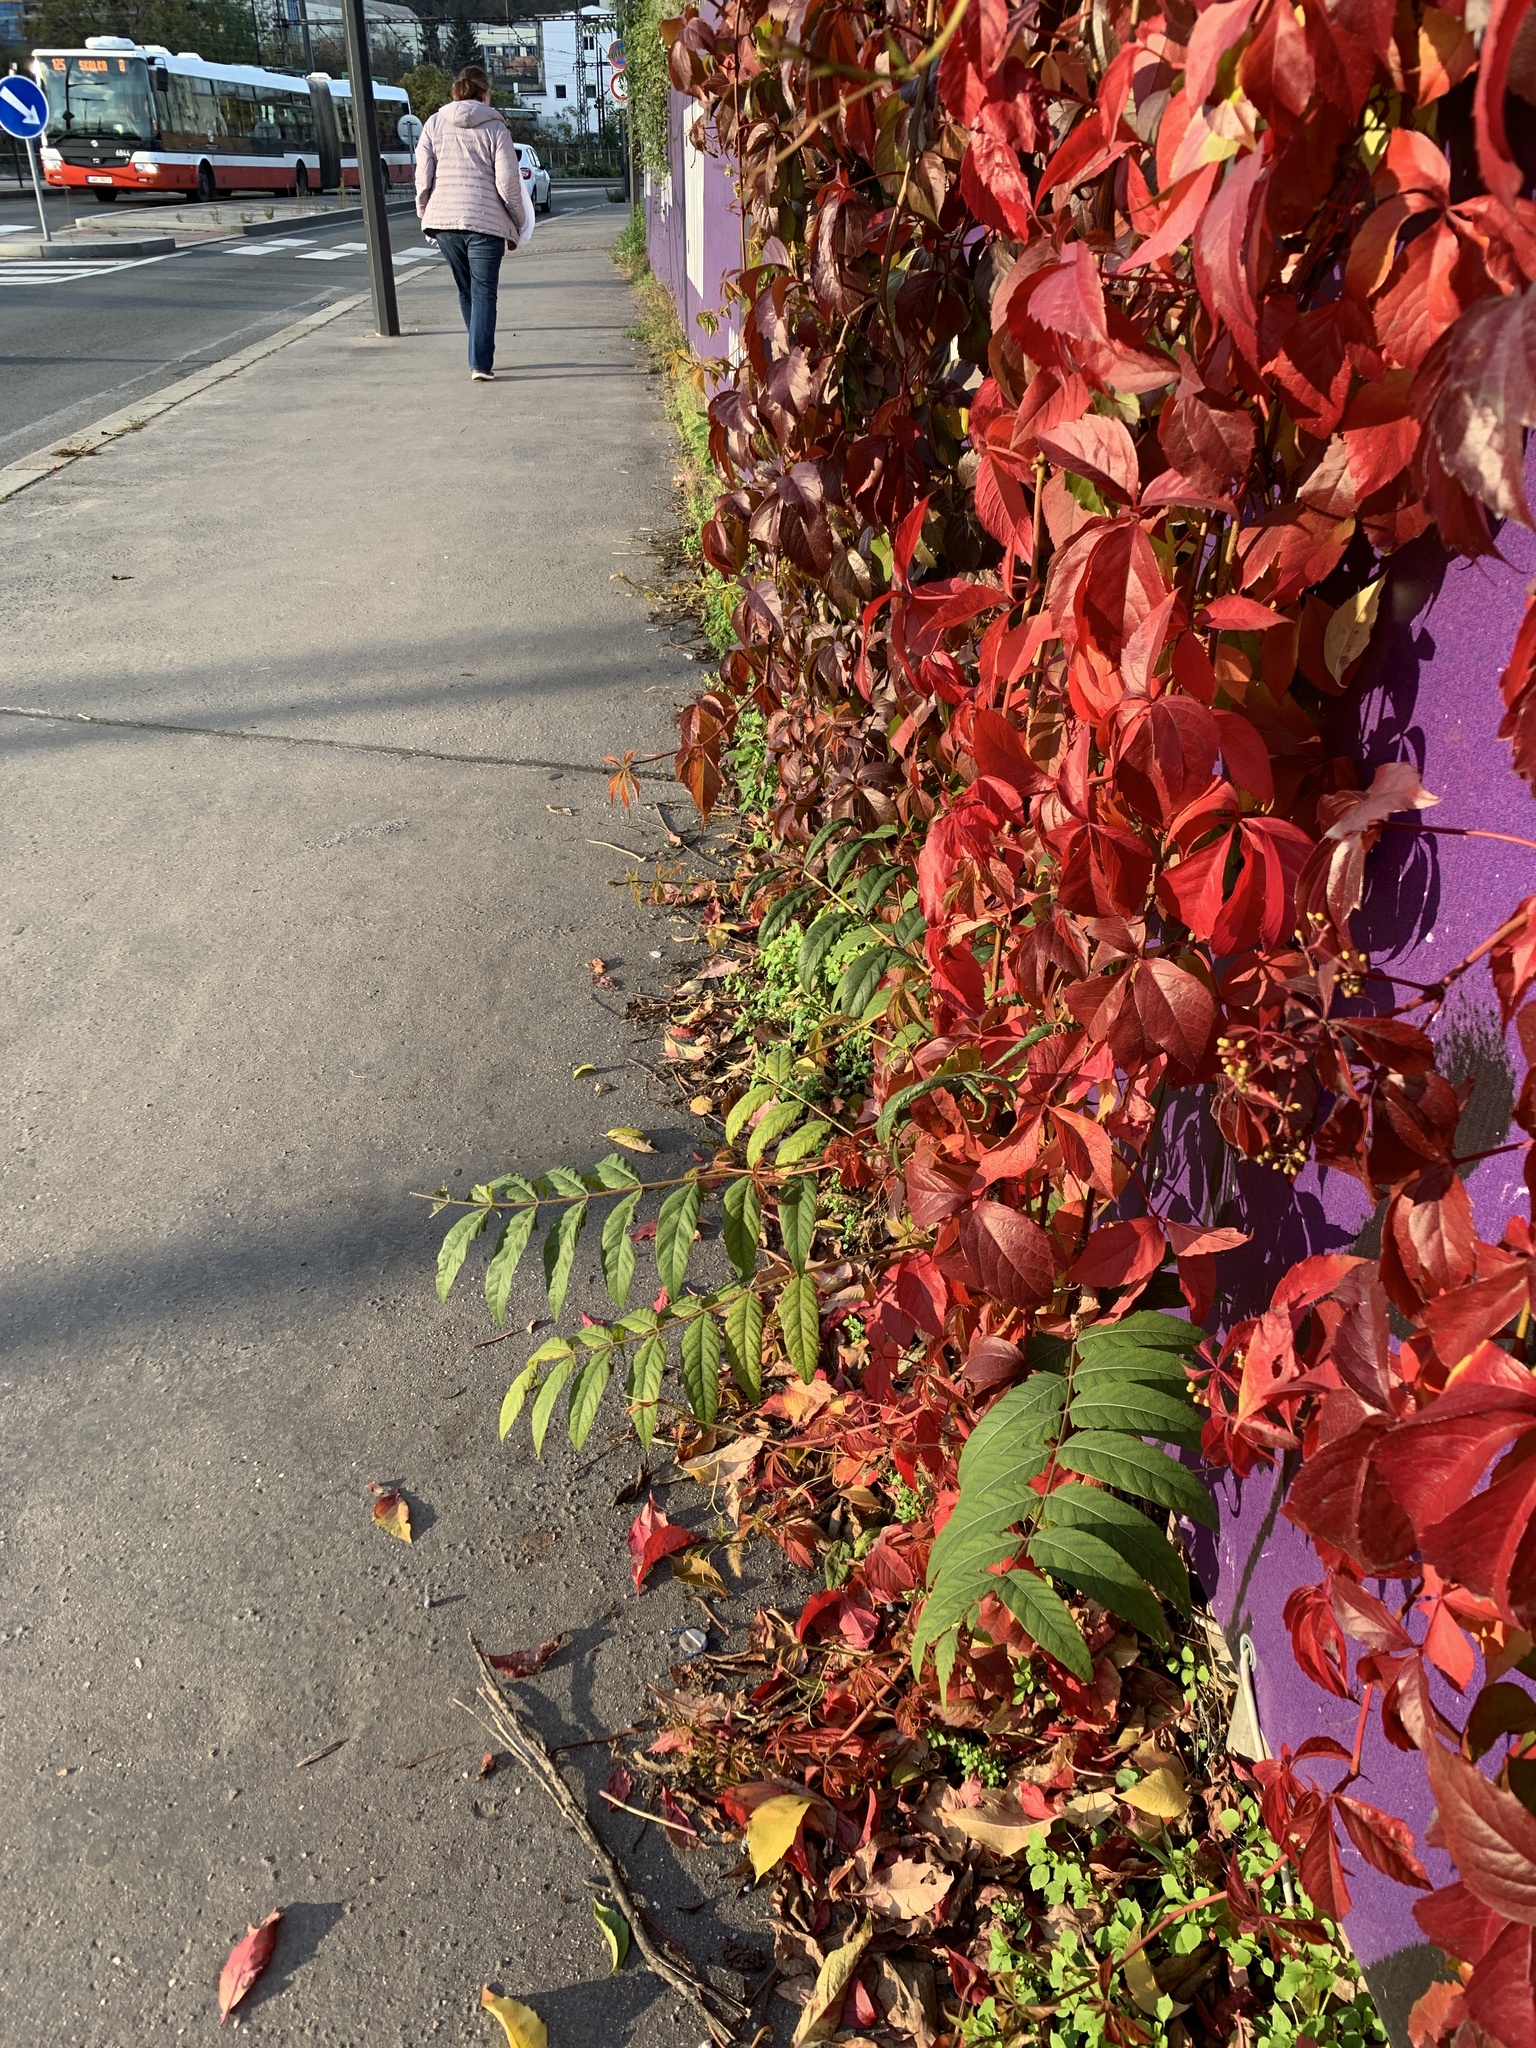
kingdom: Plantae
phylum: Tracheophyta
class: Magnoliopsida
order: Sapindales
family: Simaroubaceae
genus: Ailanthus
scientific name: Ailanthus altissima
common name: Tree-of-heaven
